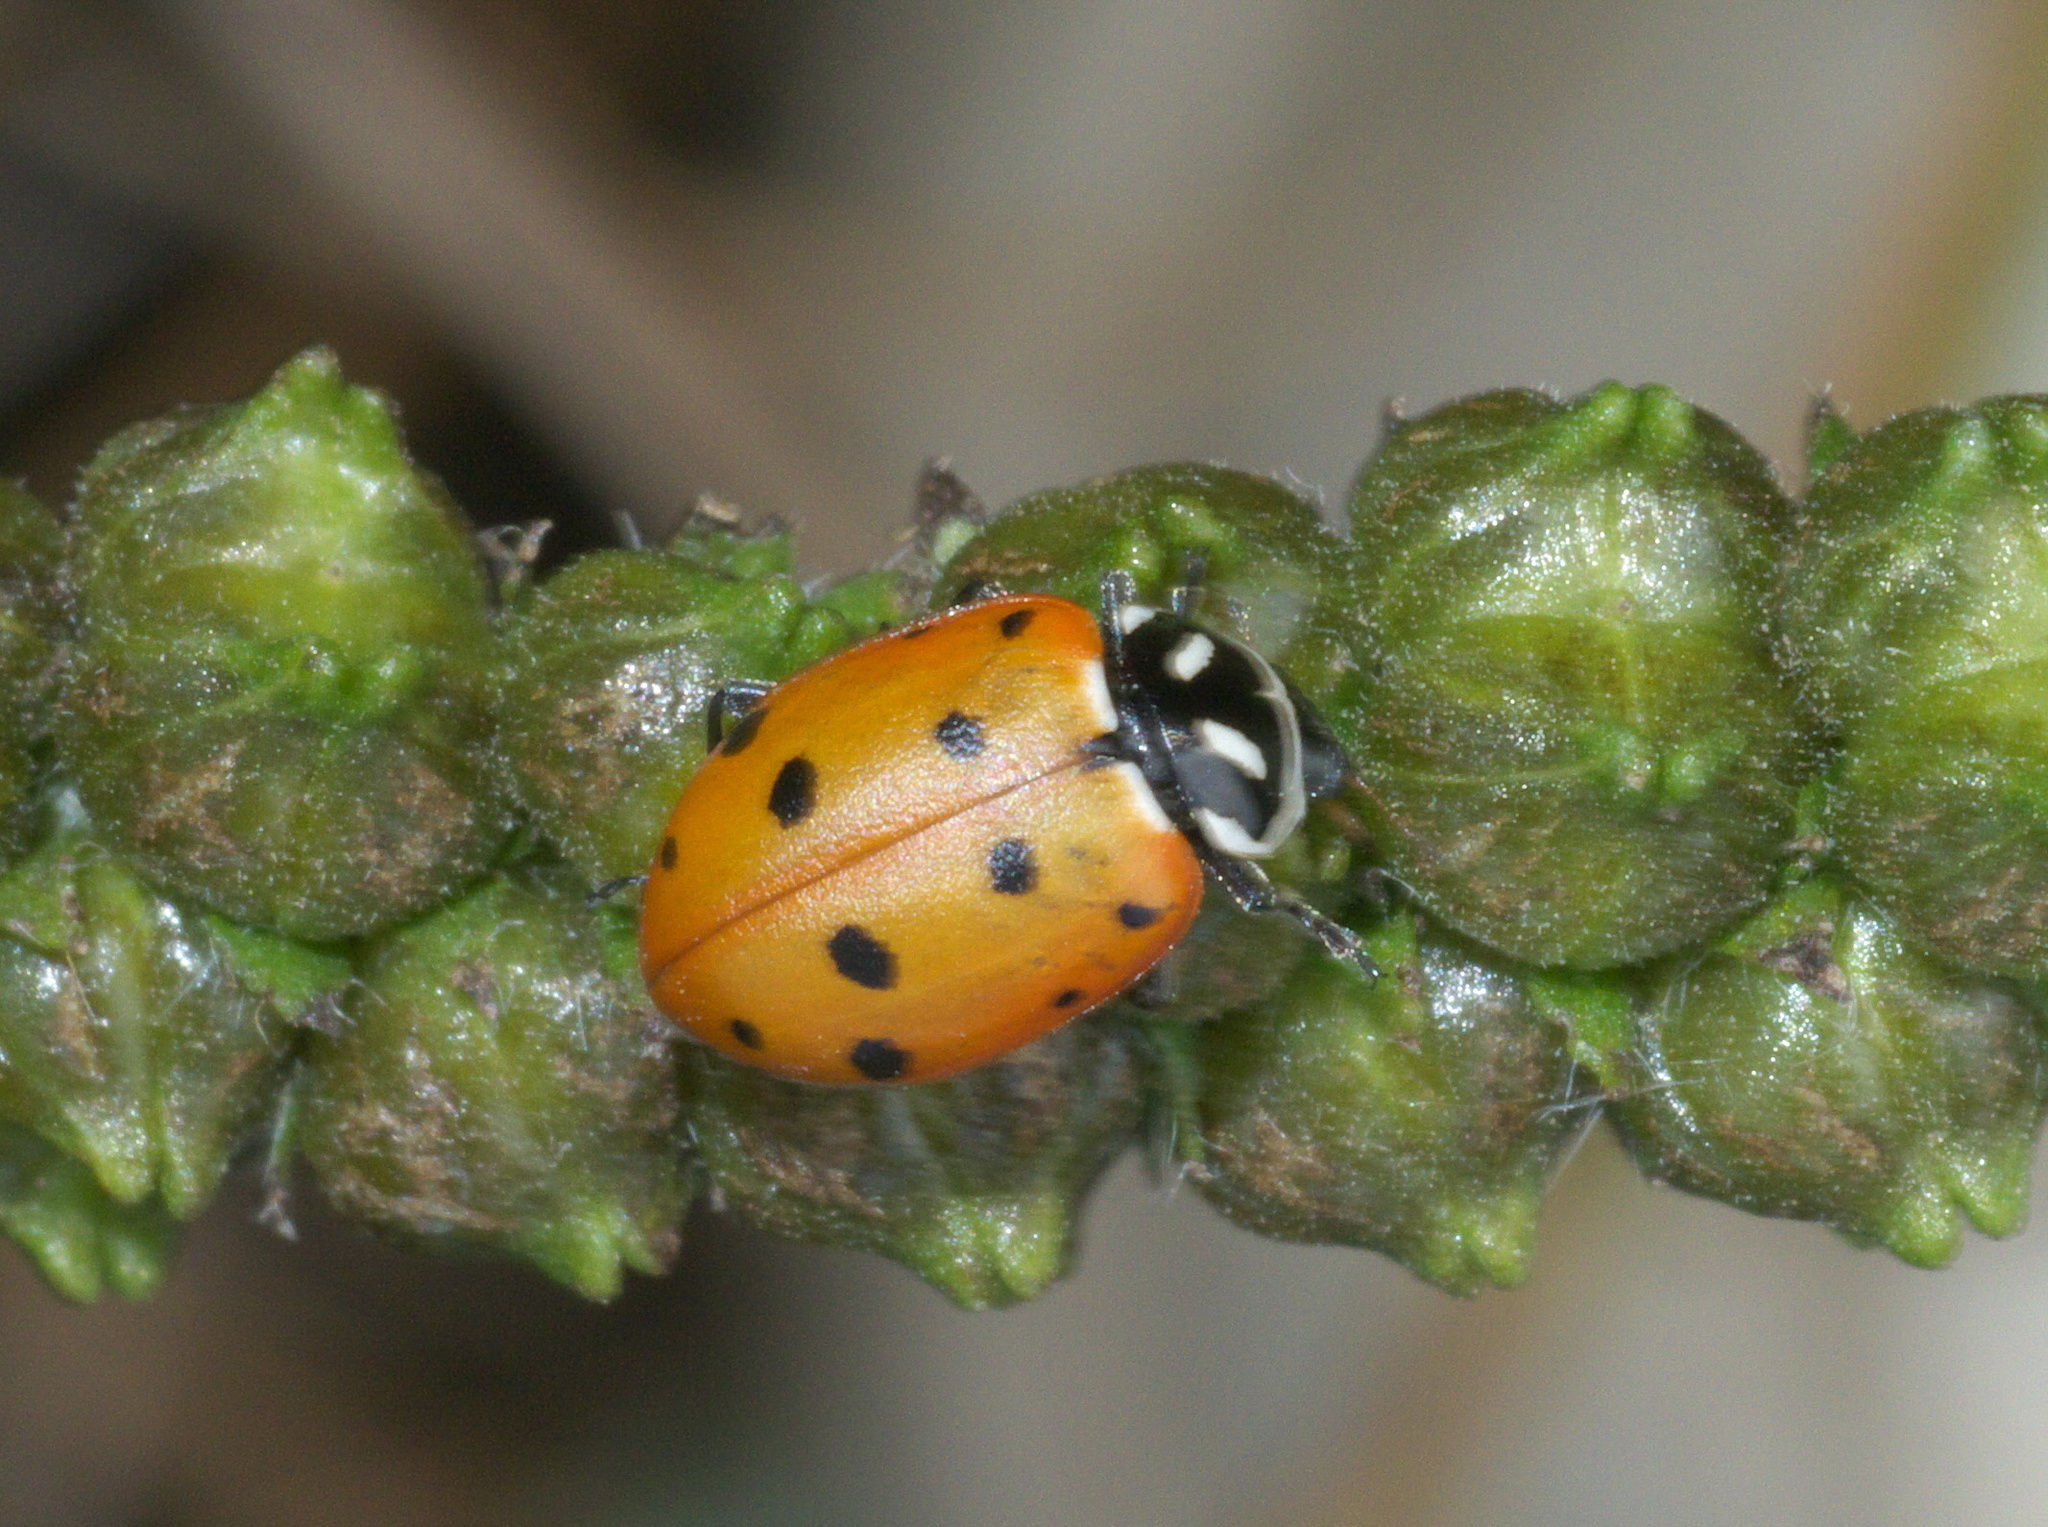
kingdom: Animalia
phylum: Arthropoda
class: Insecta
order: Coleoptera
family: Coccinellidae
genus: Hippodamia
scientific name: Hippodamia convergens
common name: Convergent lady beetle
